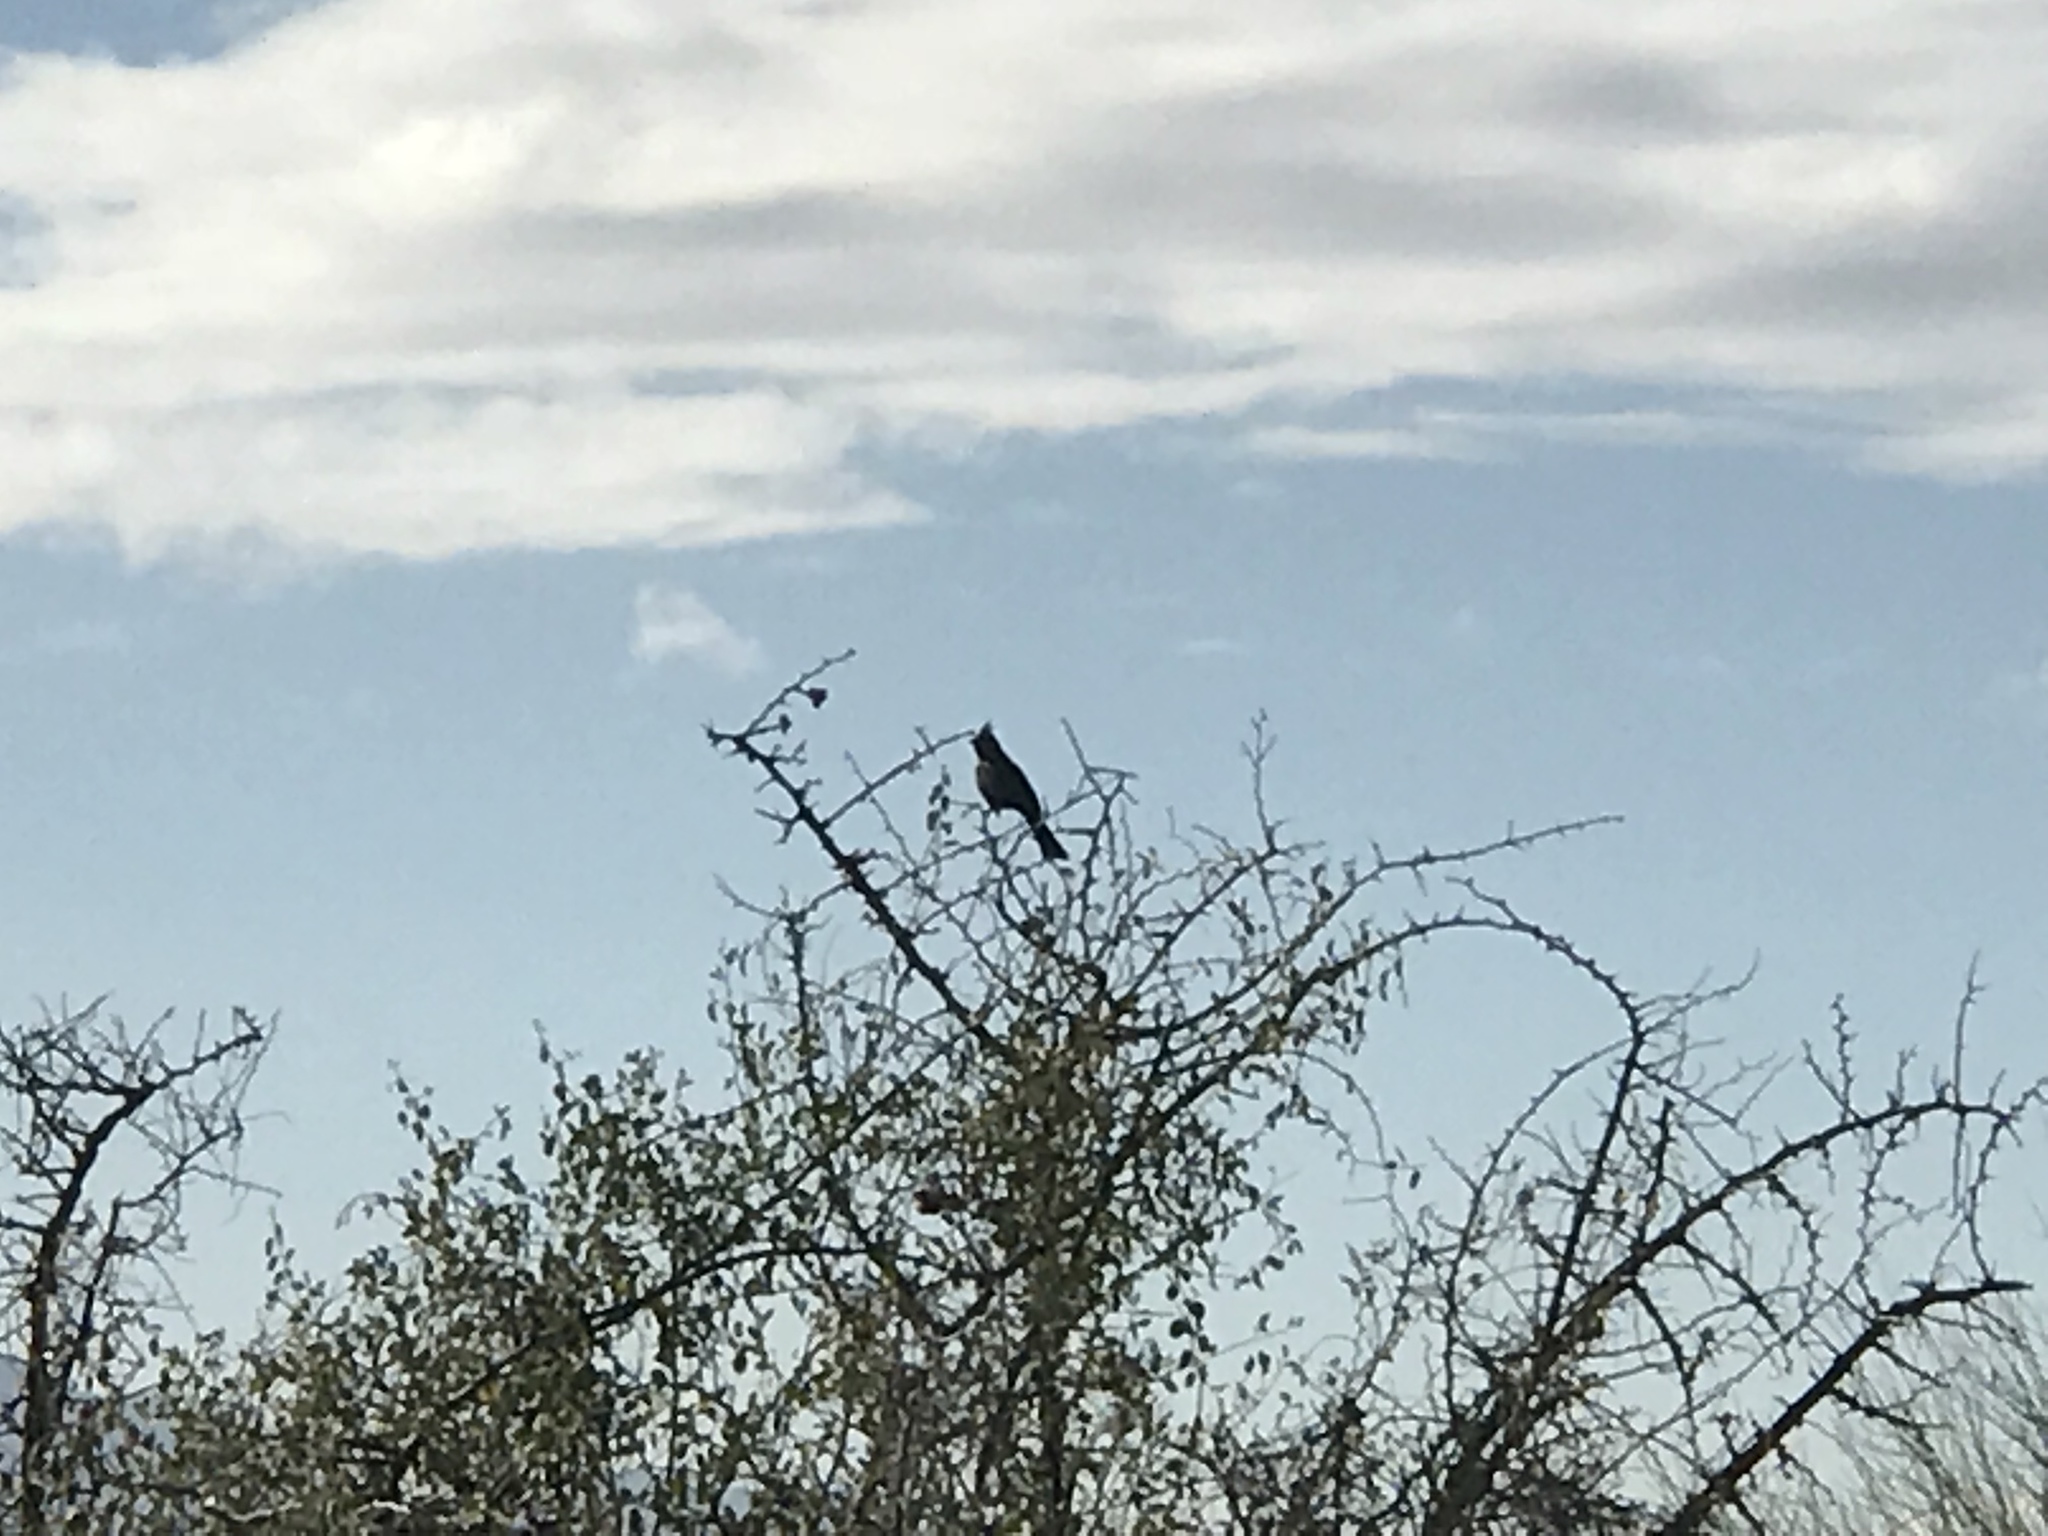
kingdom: Animalia
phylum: Chordata
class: Aves
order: Passeriformes
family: Ptilogonatidae
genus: Phainopepla
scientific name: Phainopepla nitens
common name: Phainopepla
